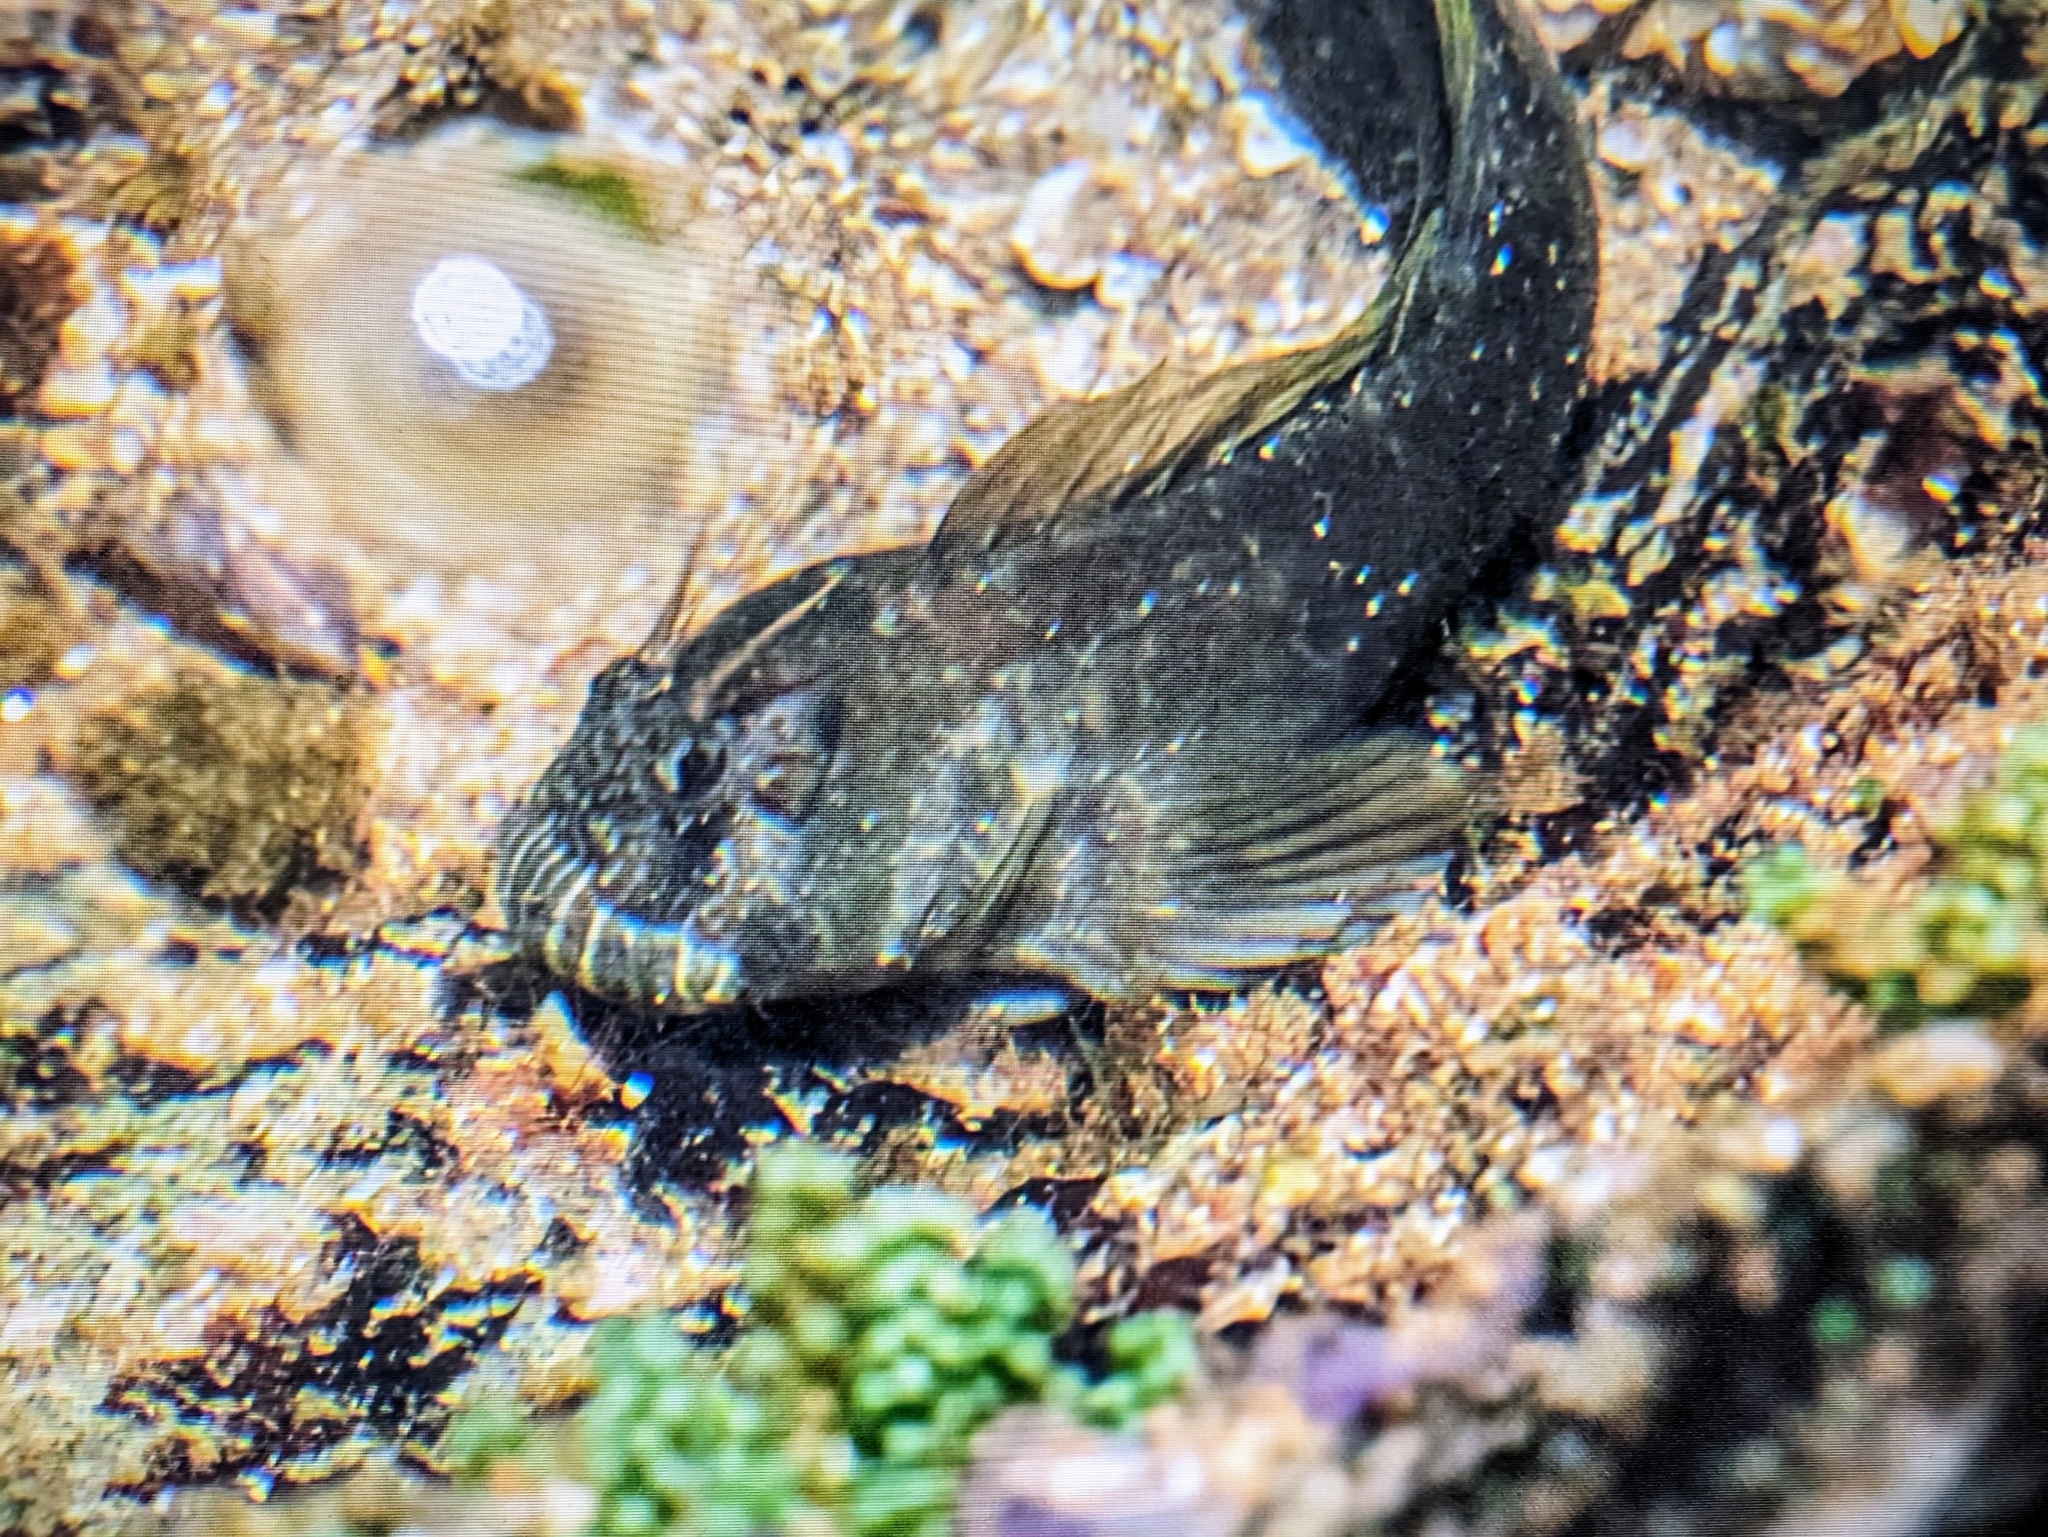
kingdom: Animalia
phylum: Chordata
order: Perciformes
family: Blenniidae
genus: Entomacrodus
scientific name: Entomacrodus epalzeocheilos
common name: Fringelip rockskipper
